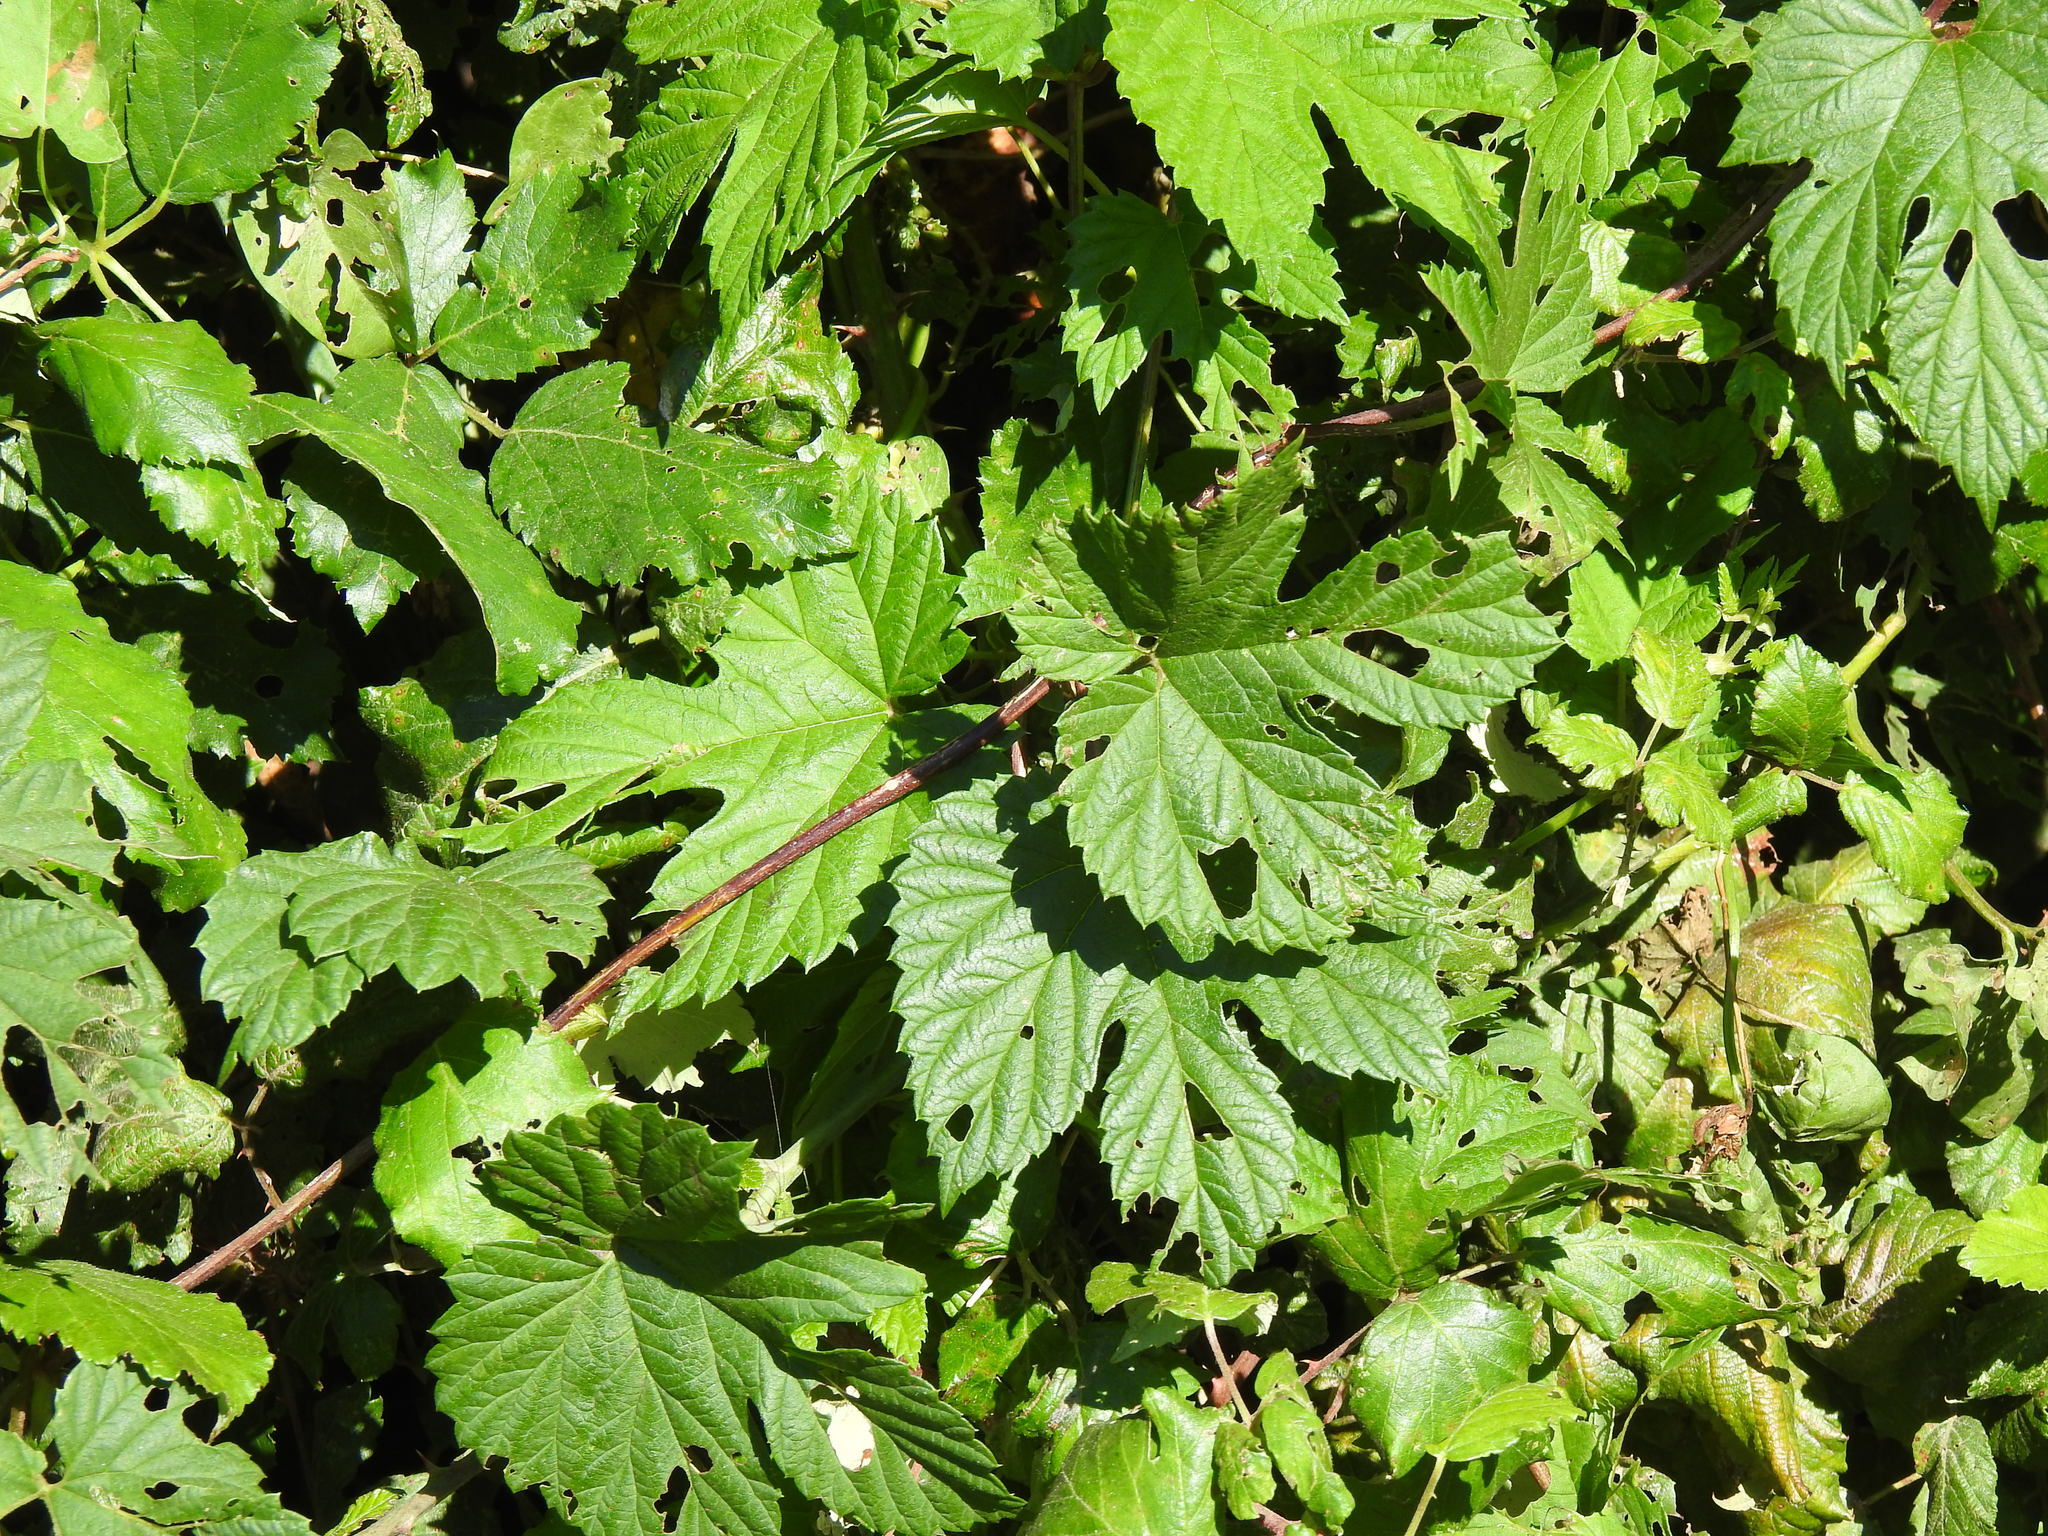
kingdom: Plantae
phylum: Tracheophyta
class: Magnoliopsida
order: Rosales
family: Cannabaceae
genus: Humulus
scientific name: Humulus lupulus
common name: Hop
